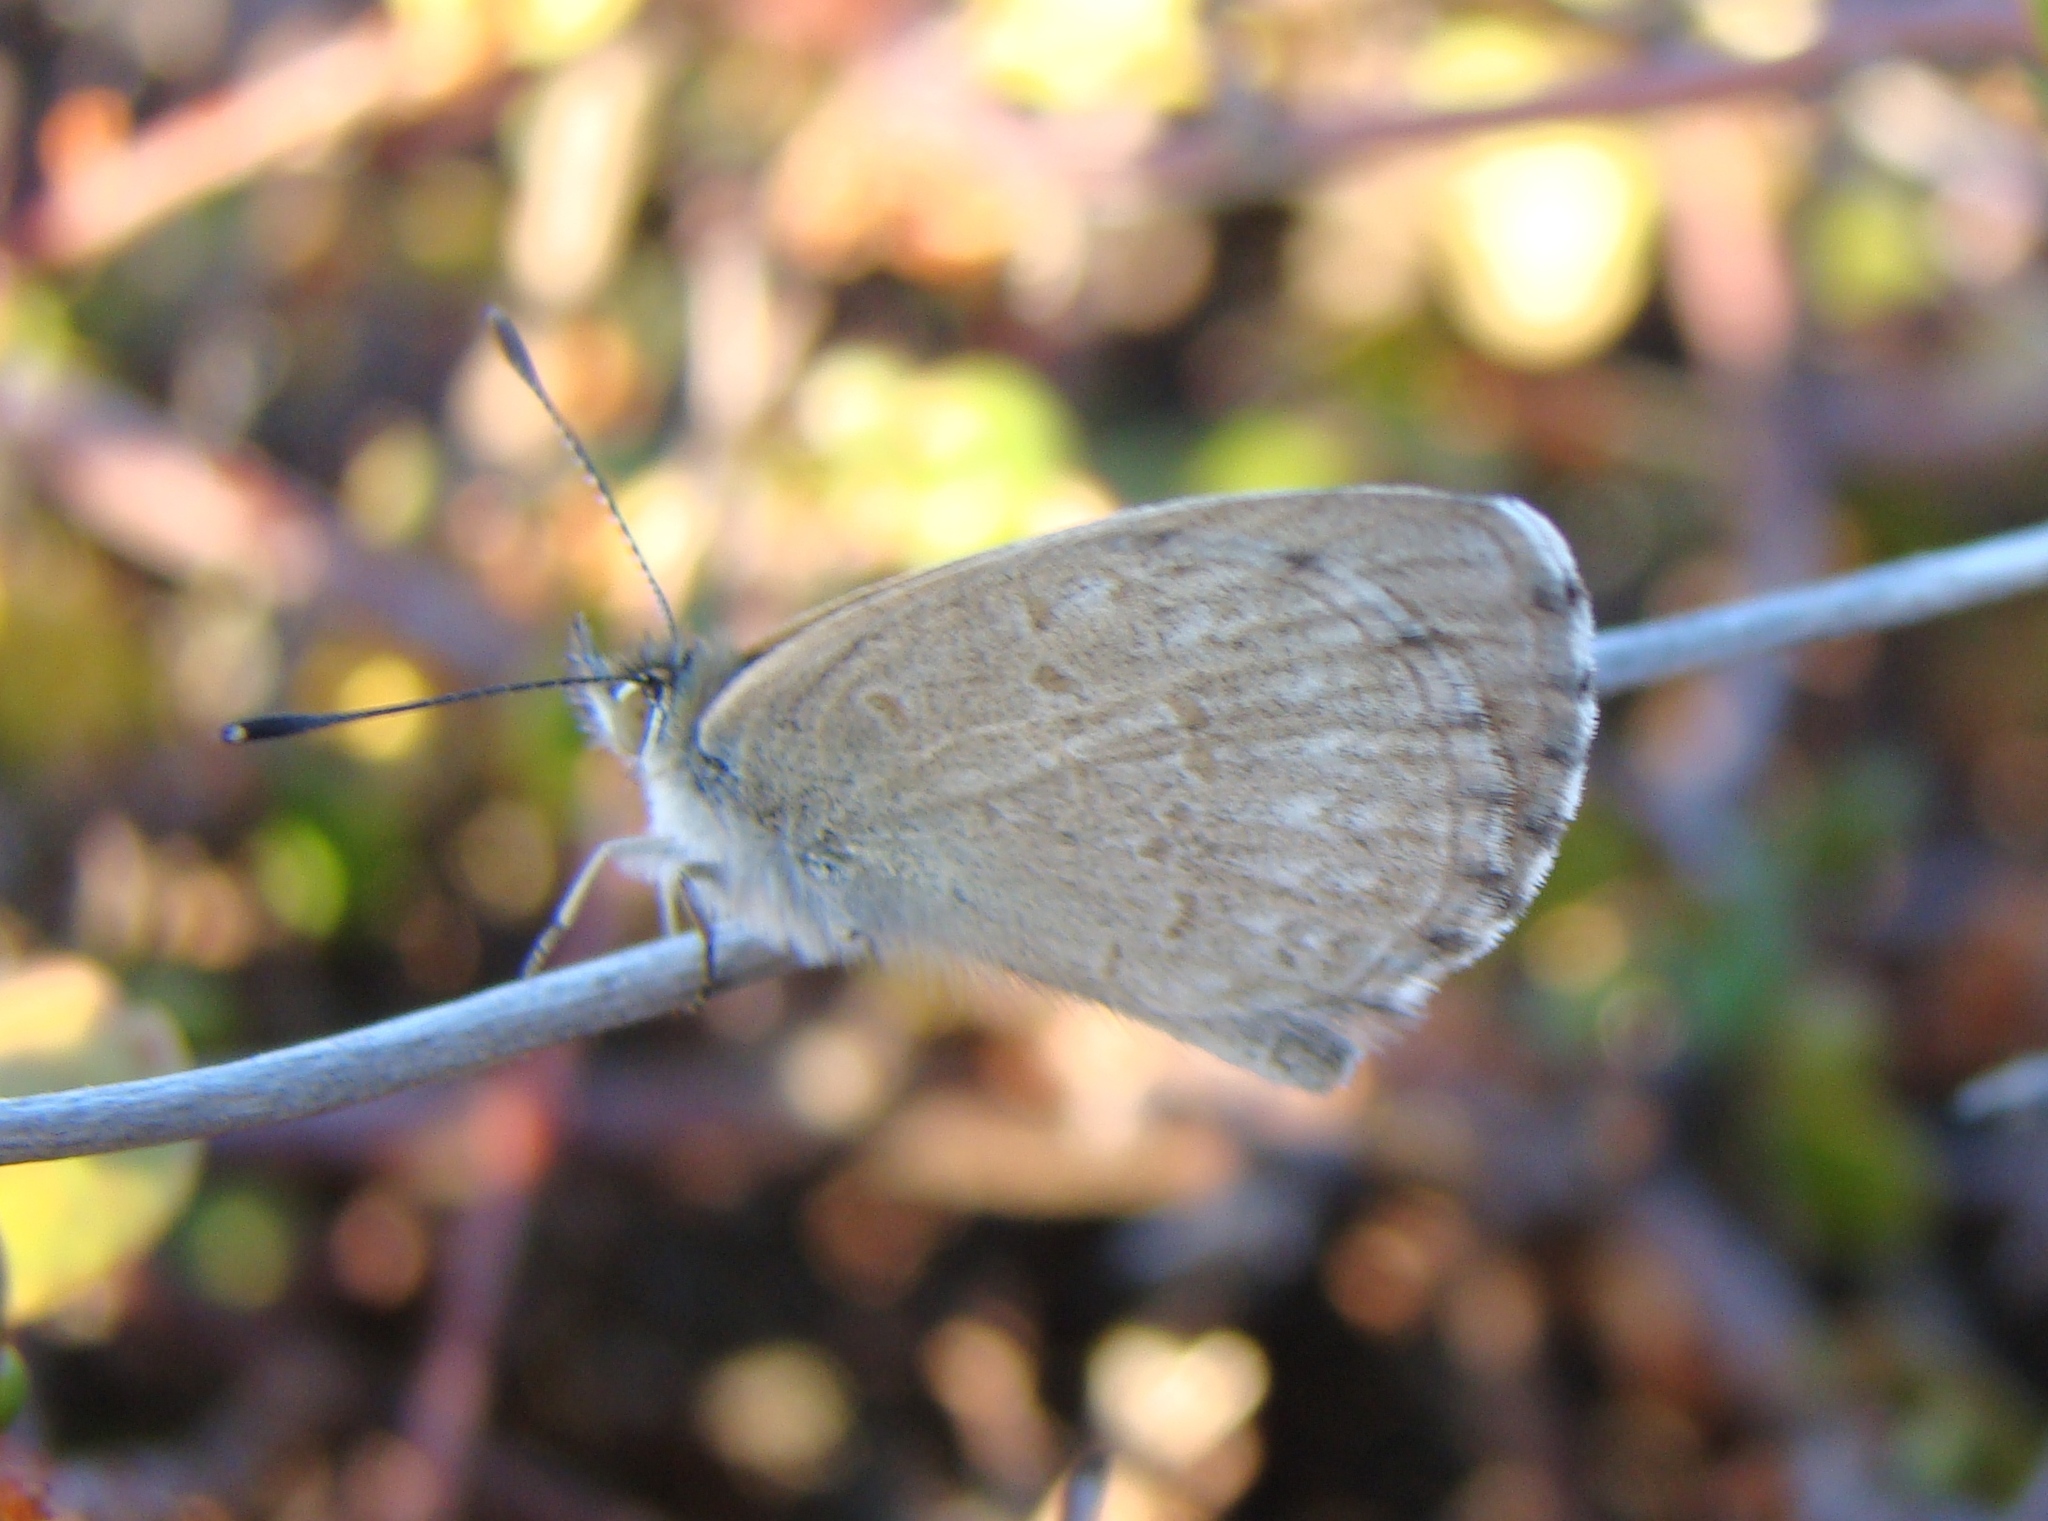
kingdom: Animalia
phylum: Arthropoda
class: Insecta
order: Lepidoptera
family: Lycaenidae
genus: Zizina
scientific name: Zizina labradus
